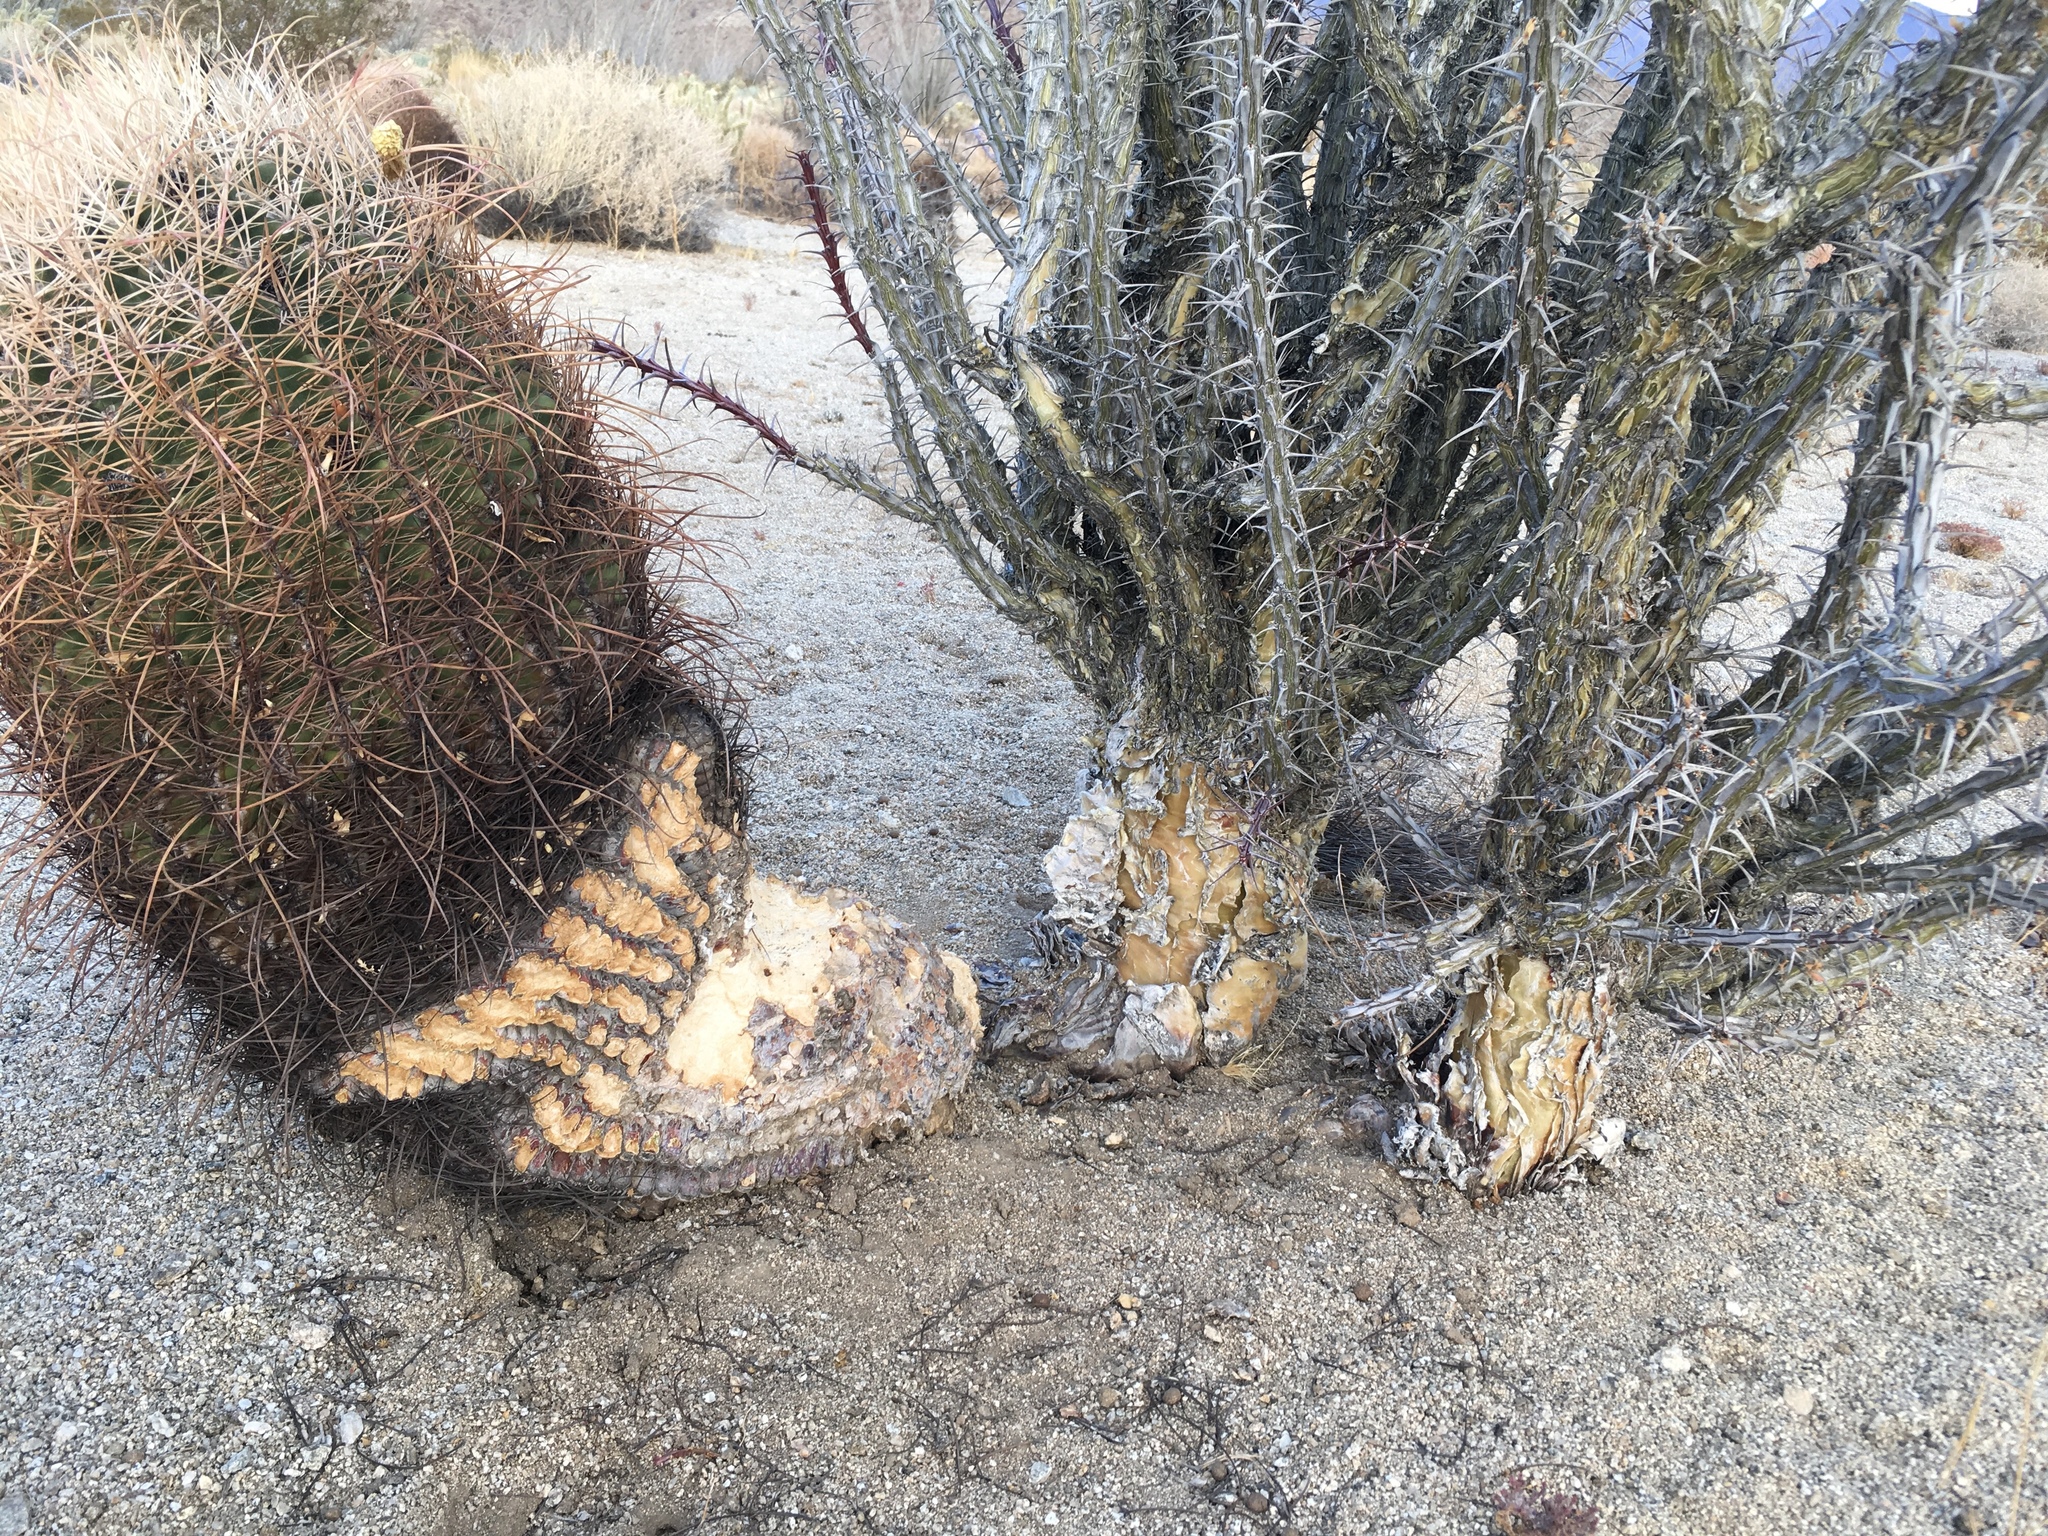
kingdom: Plantae
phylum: Tracheophyta
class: Magnoliopsida
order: Ericales
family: Fouquieriaceae
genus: Fouquieria
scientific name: Fouquieria splendens
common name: Vine-cactus
